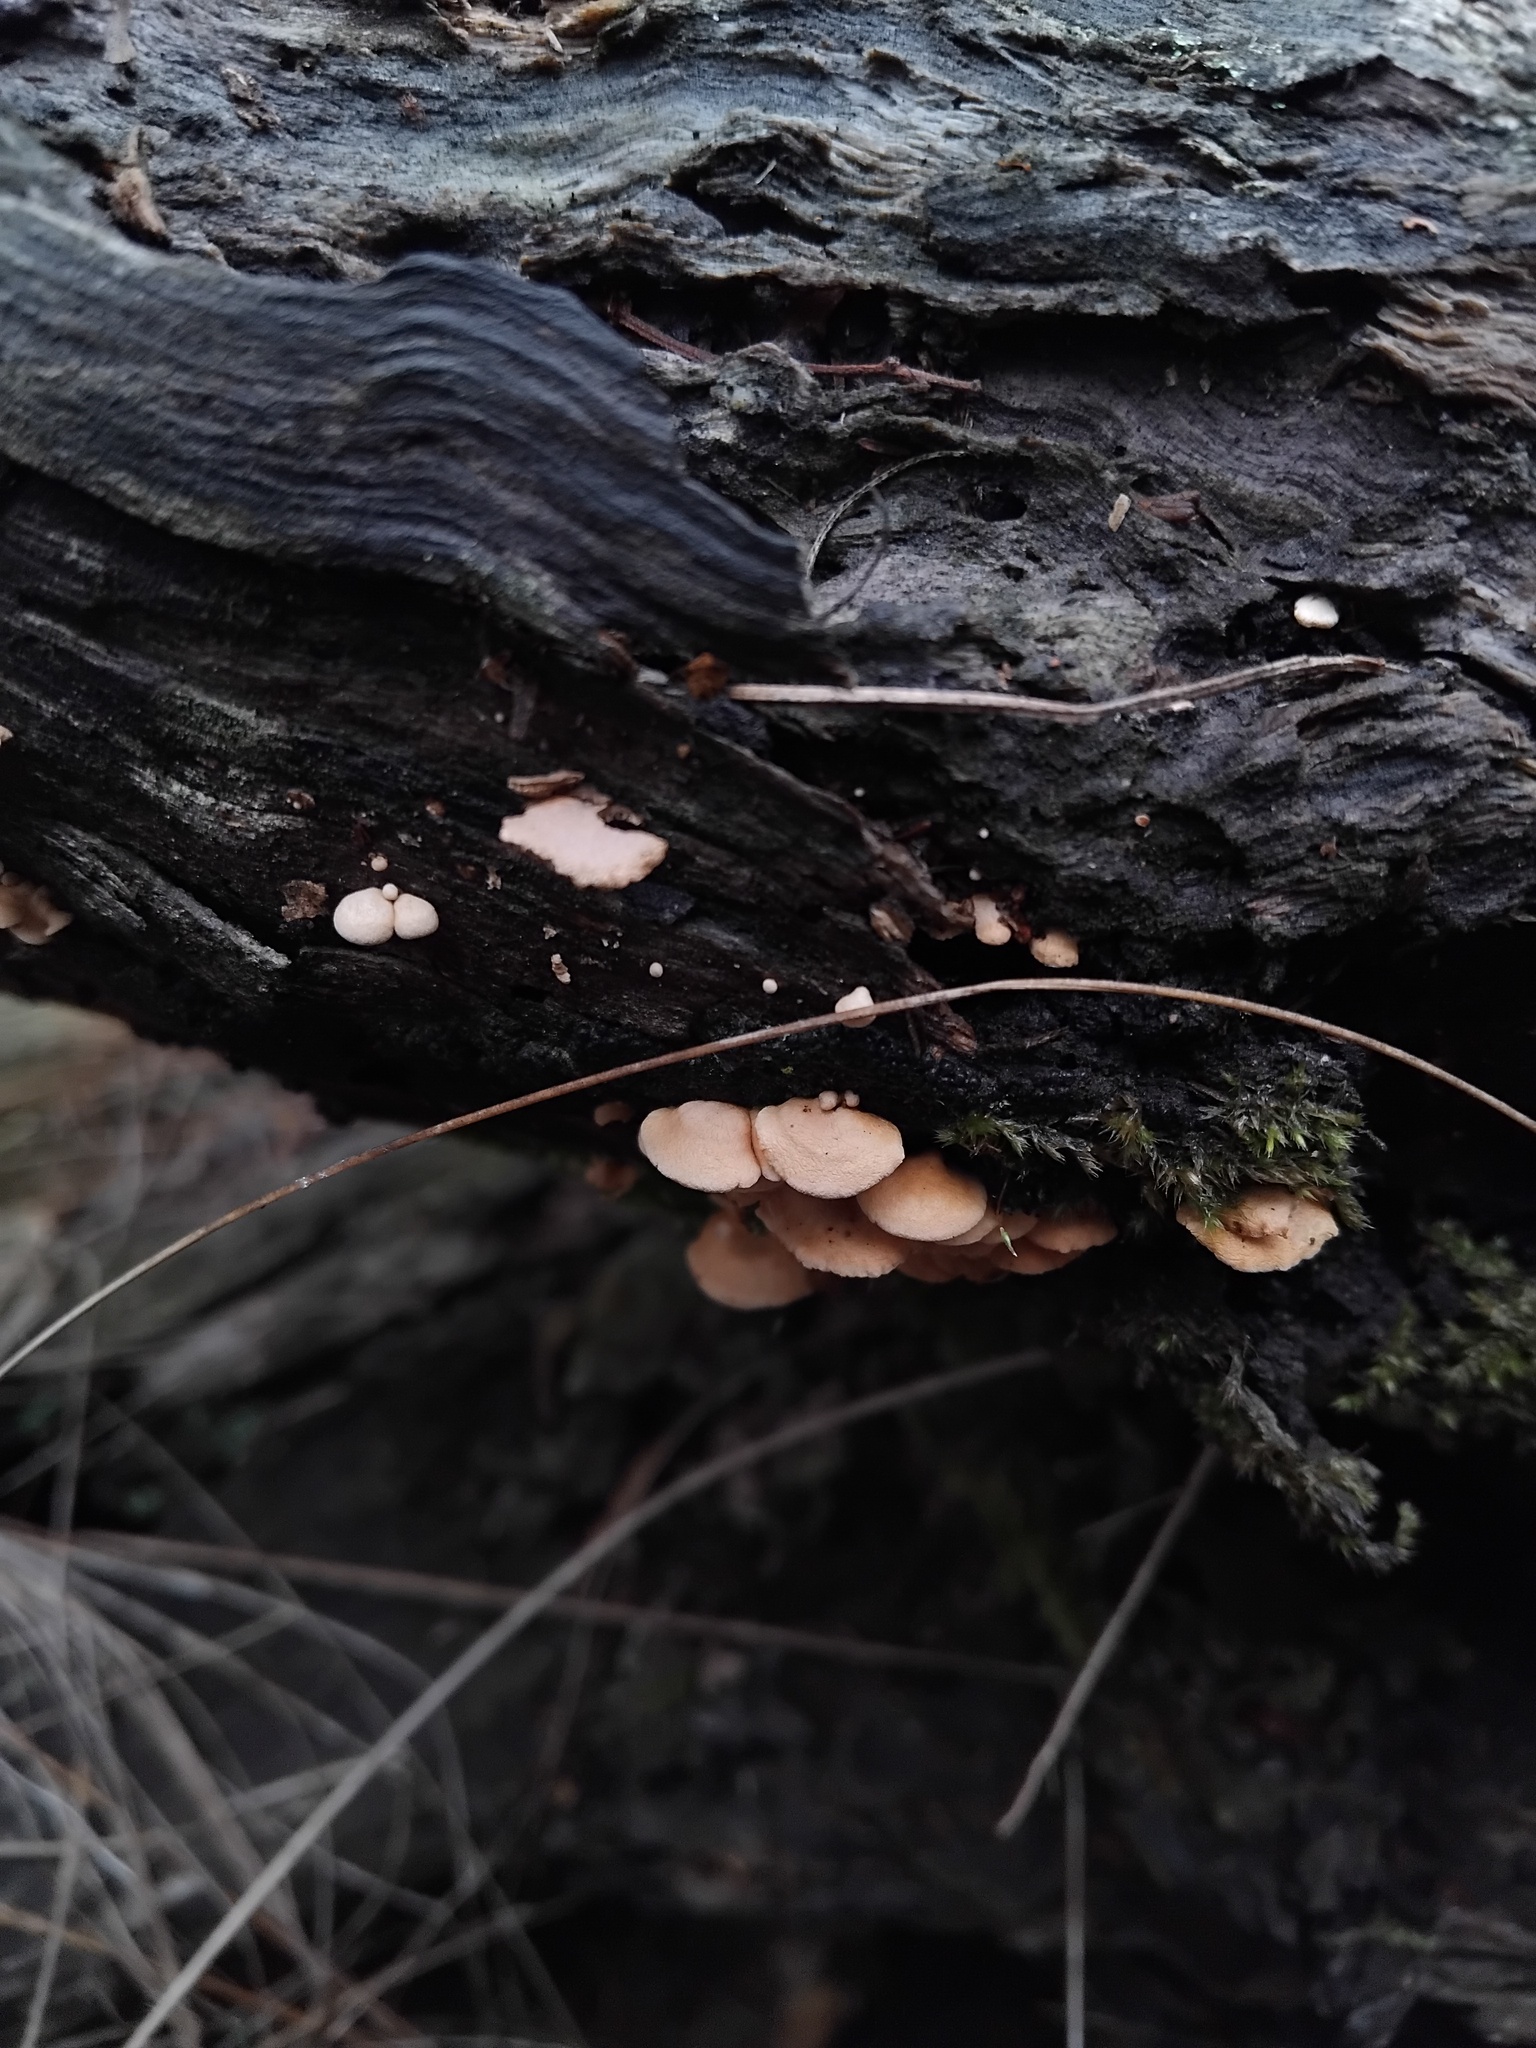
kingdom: Fungi
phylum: Basidiomycota
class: Agaricomycetes
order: Agaricales
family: Mycenaceae
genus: Panellus
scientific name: Panellus luxfilamentus
